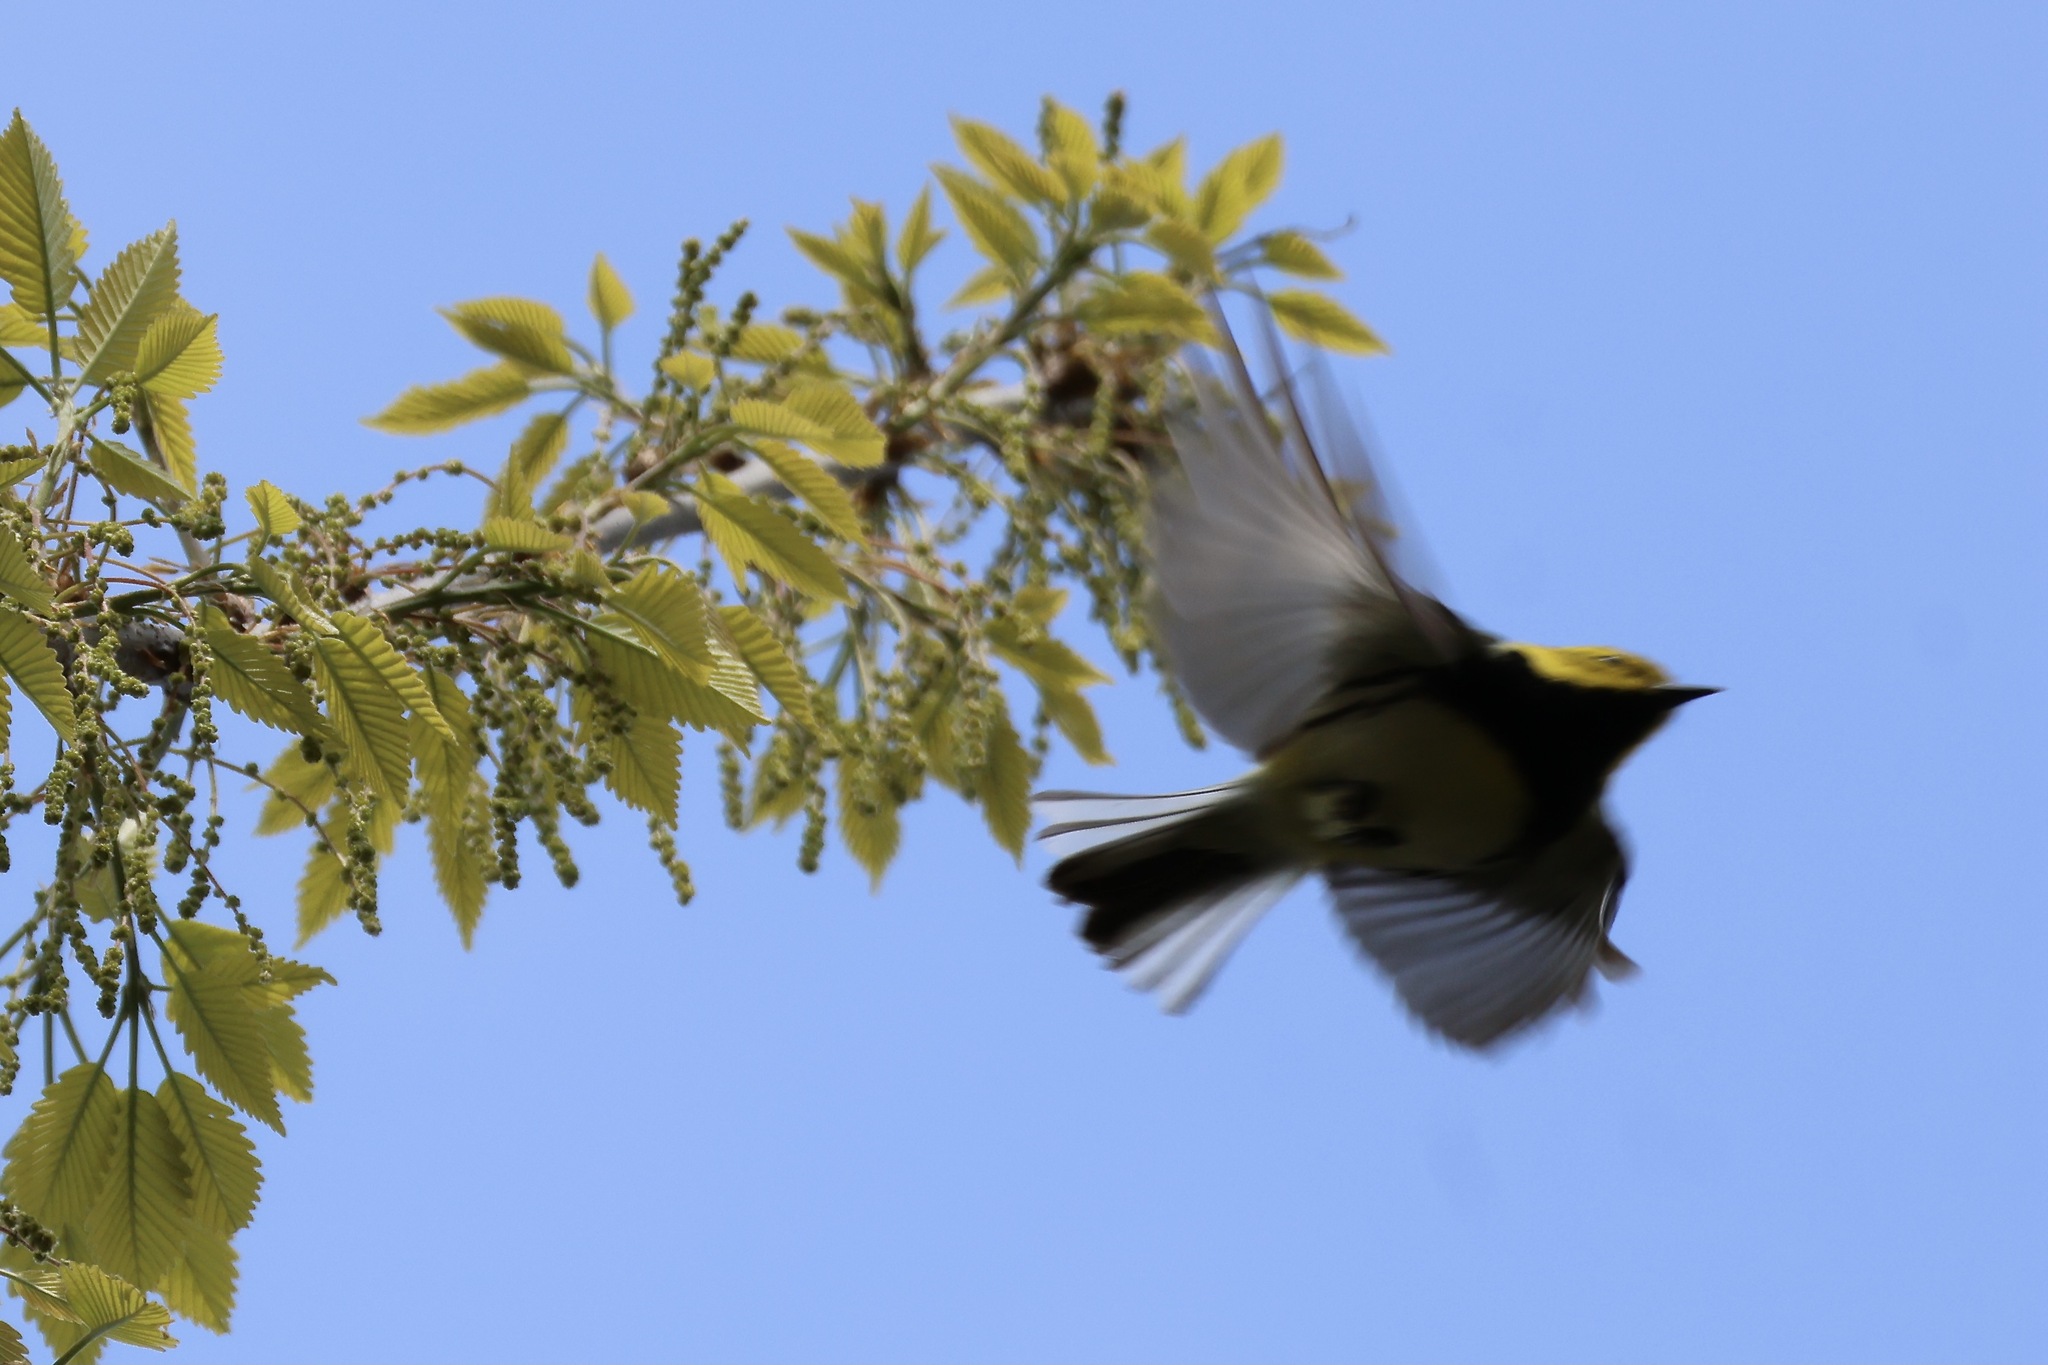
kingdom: Animalia
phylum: Chordata
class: Aves
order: Passeriformes
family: Parulidae
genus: Setophaga
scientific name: Setophaga virens
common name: Black-throated green warbler
